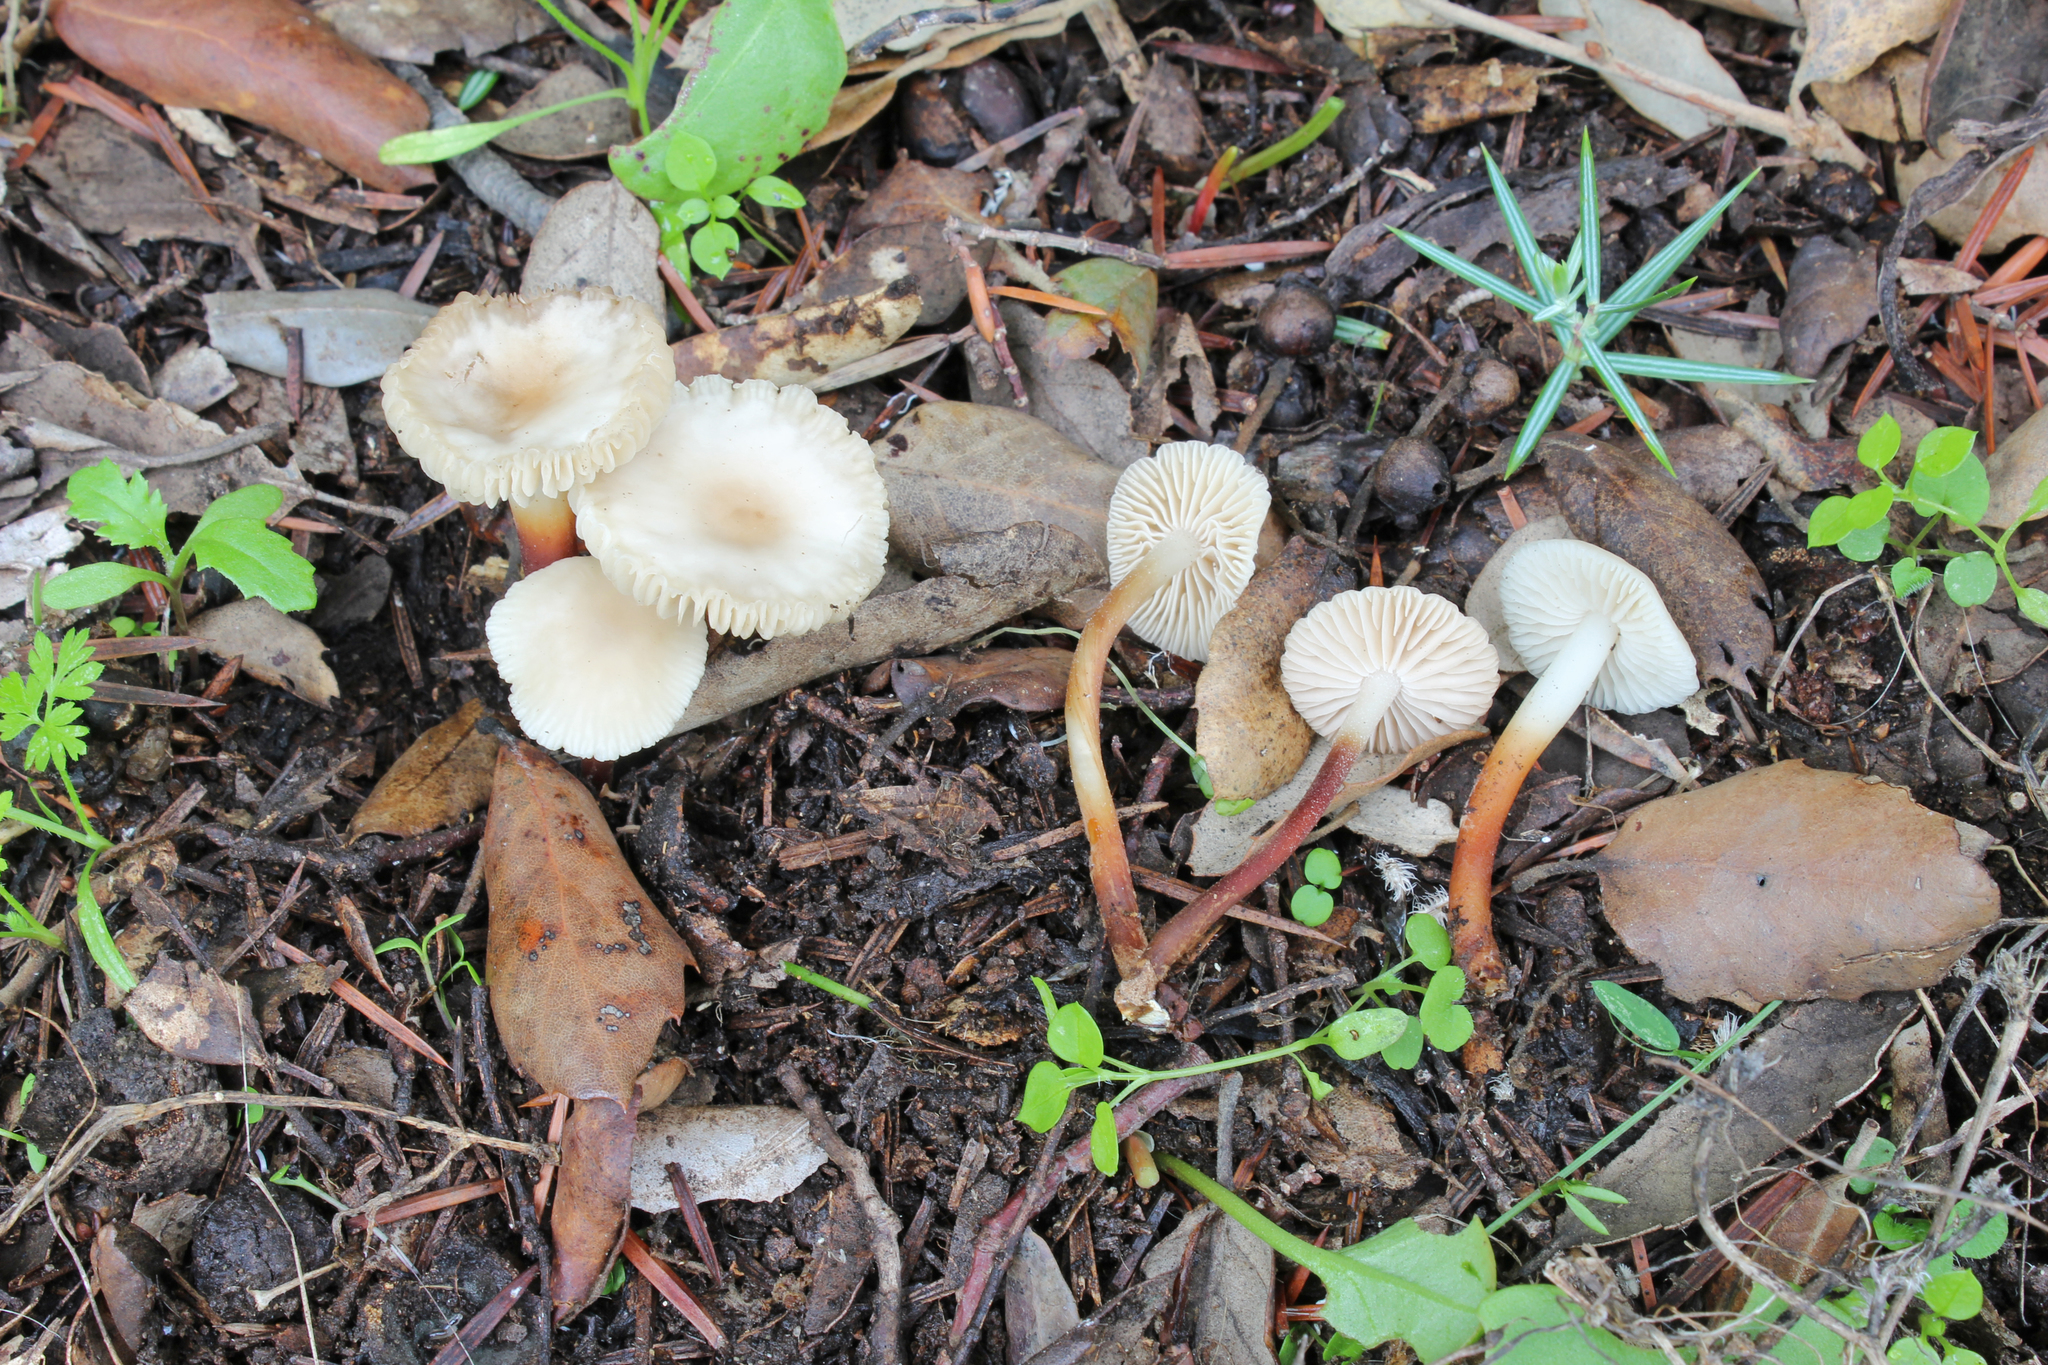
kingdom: Fungi
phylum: Basidiomycota
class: Agaricomycetes
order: Agaricales
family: Marasmiaceae
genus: Marasmius
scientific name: Marasmius wynneae
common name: Pearly parachute
